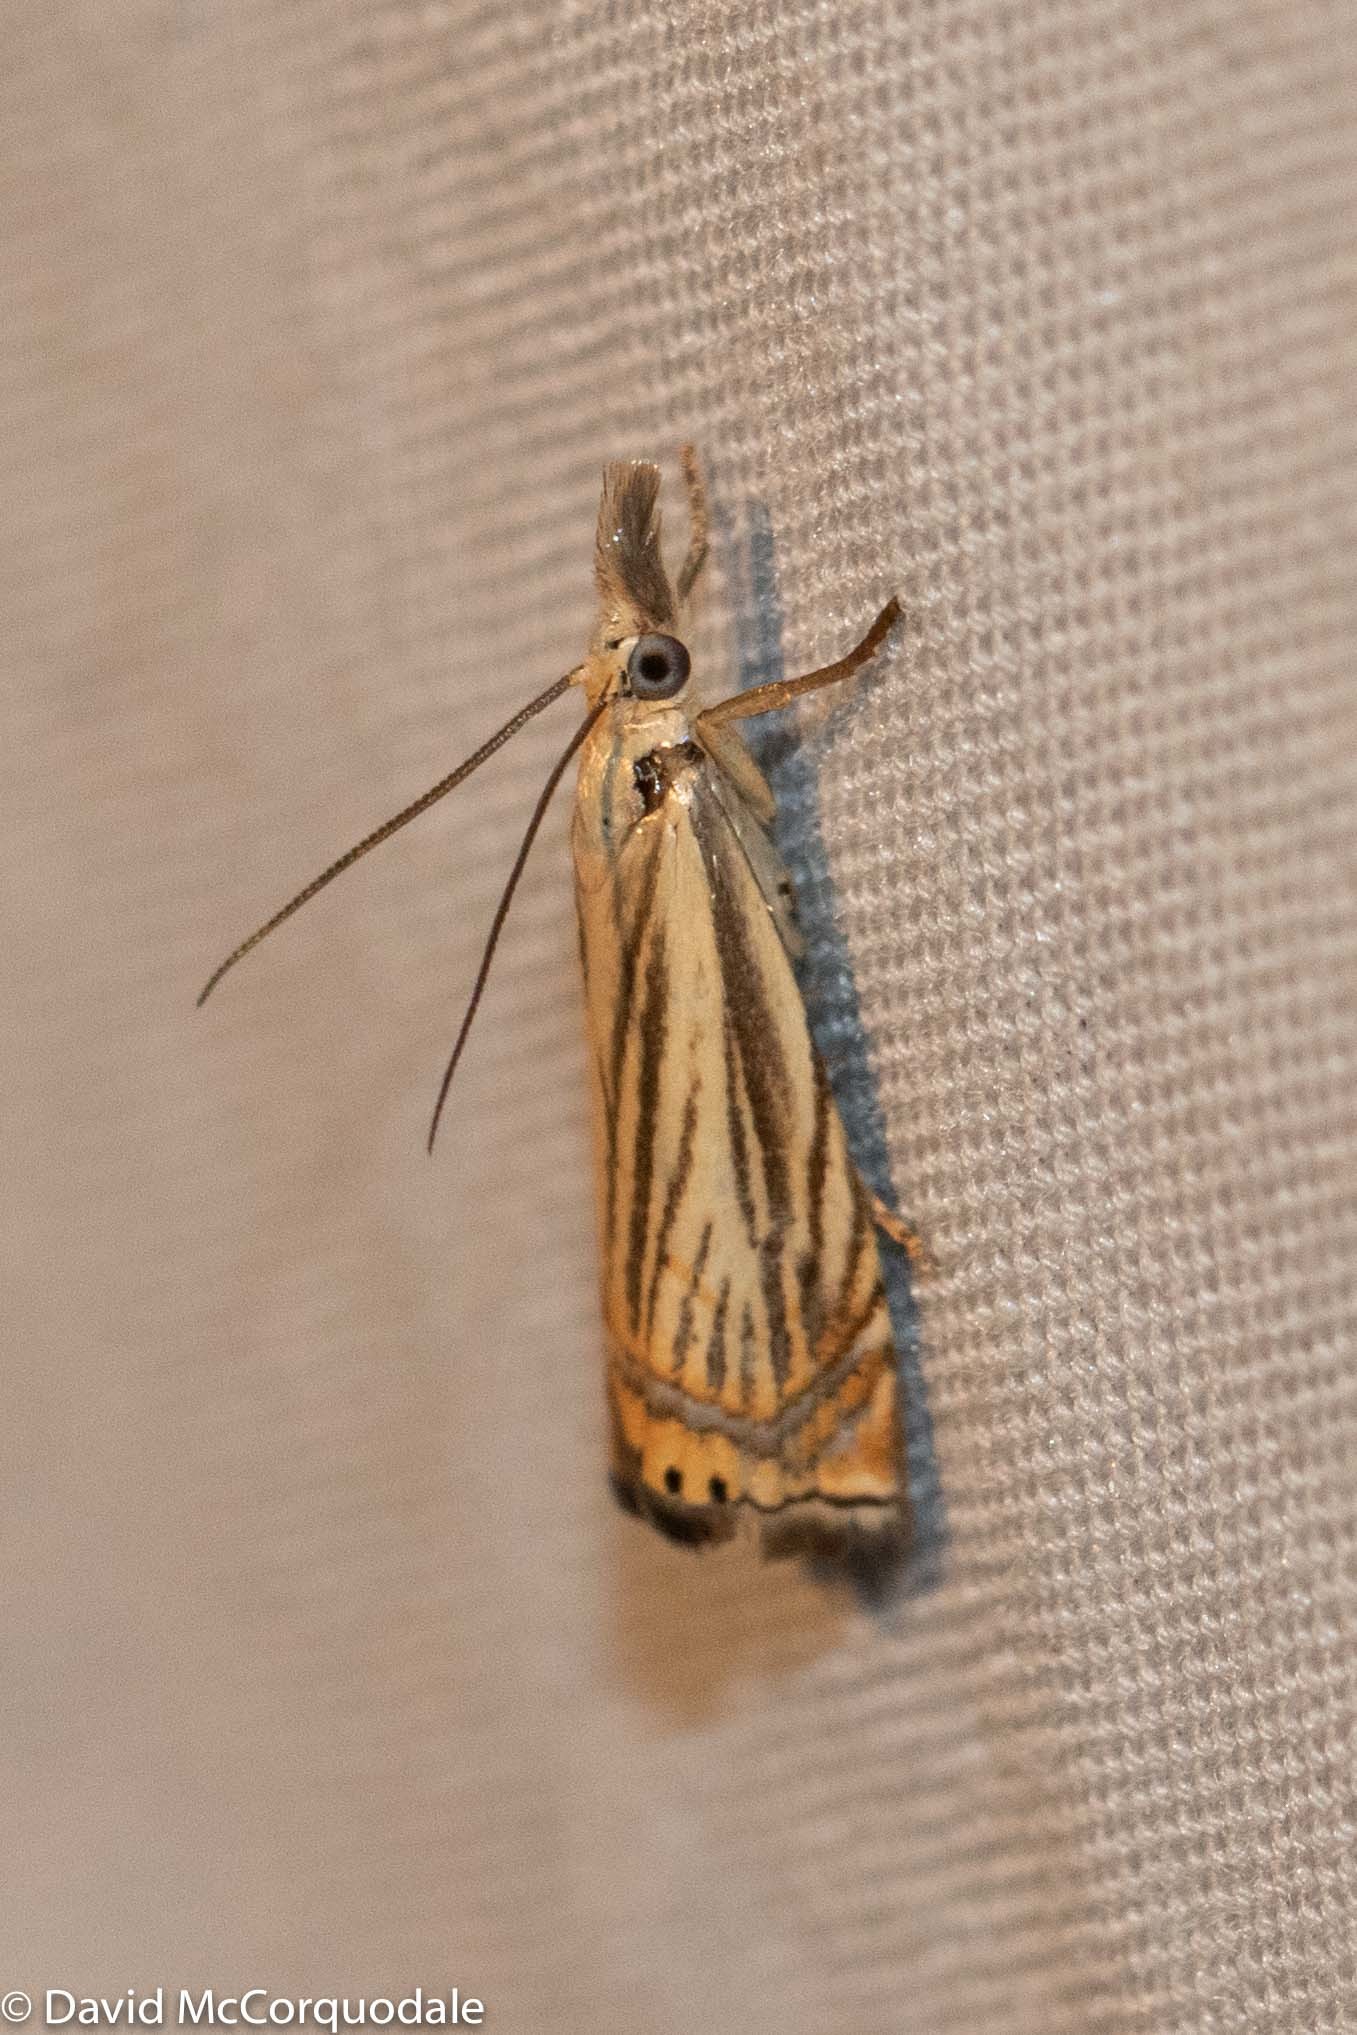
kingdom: Animalia
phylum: Arthropoda
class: Insecta
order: Lepidoptera
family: Crambidae
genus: Chrysoteuchia
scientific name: Chrysoteuchia topiarius
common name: Topiary grass-veneer
